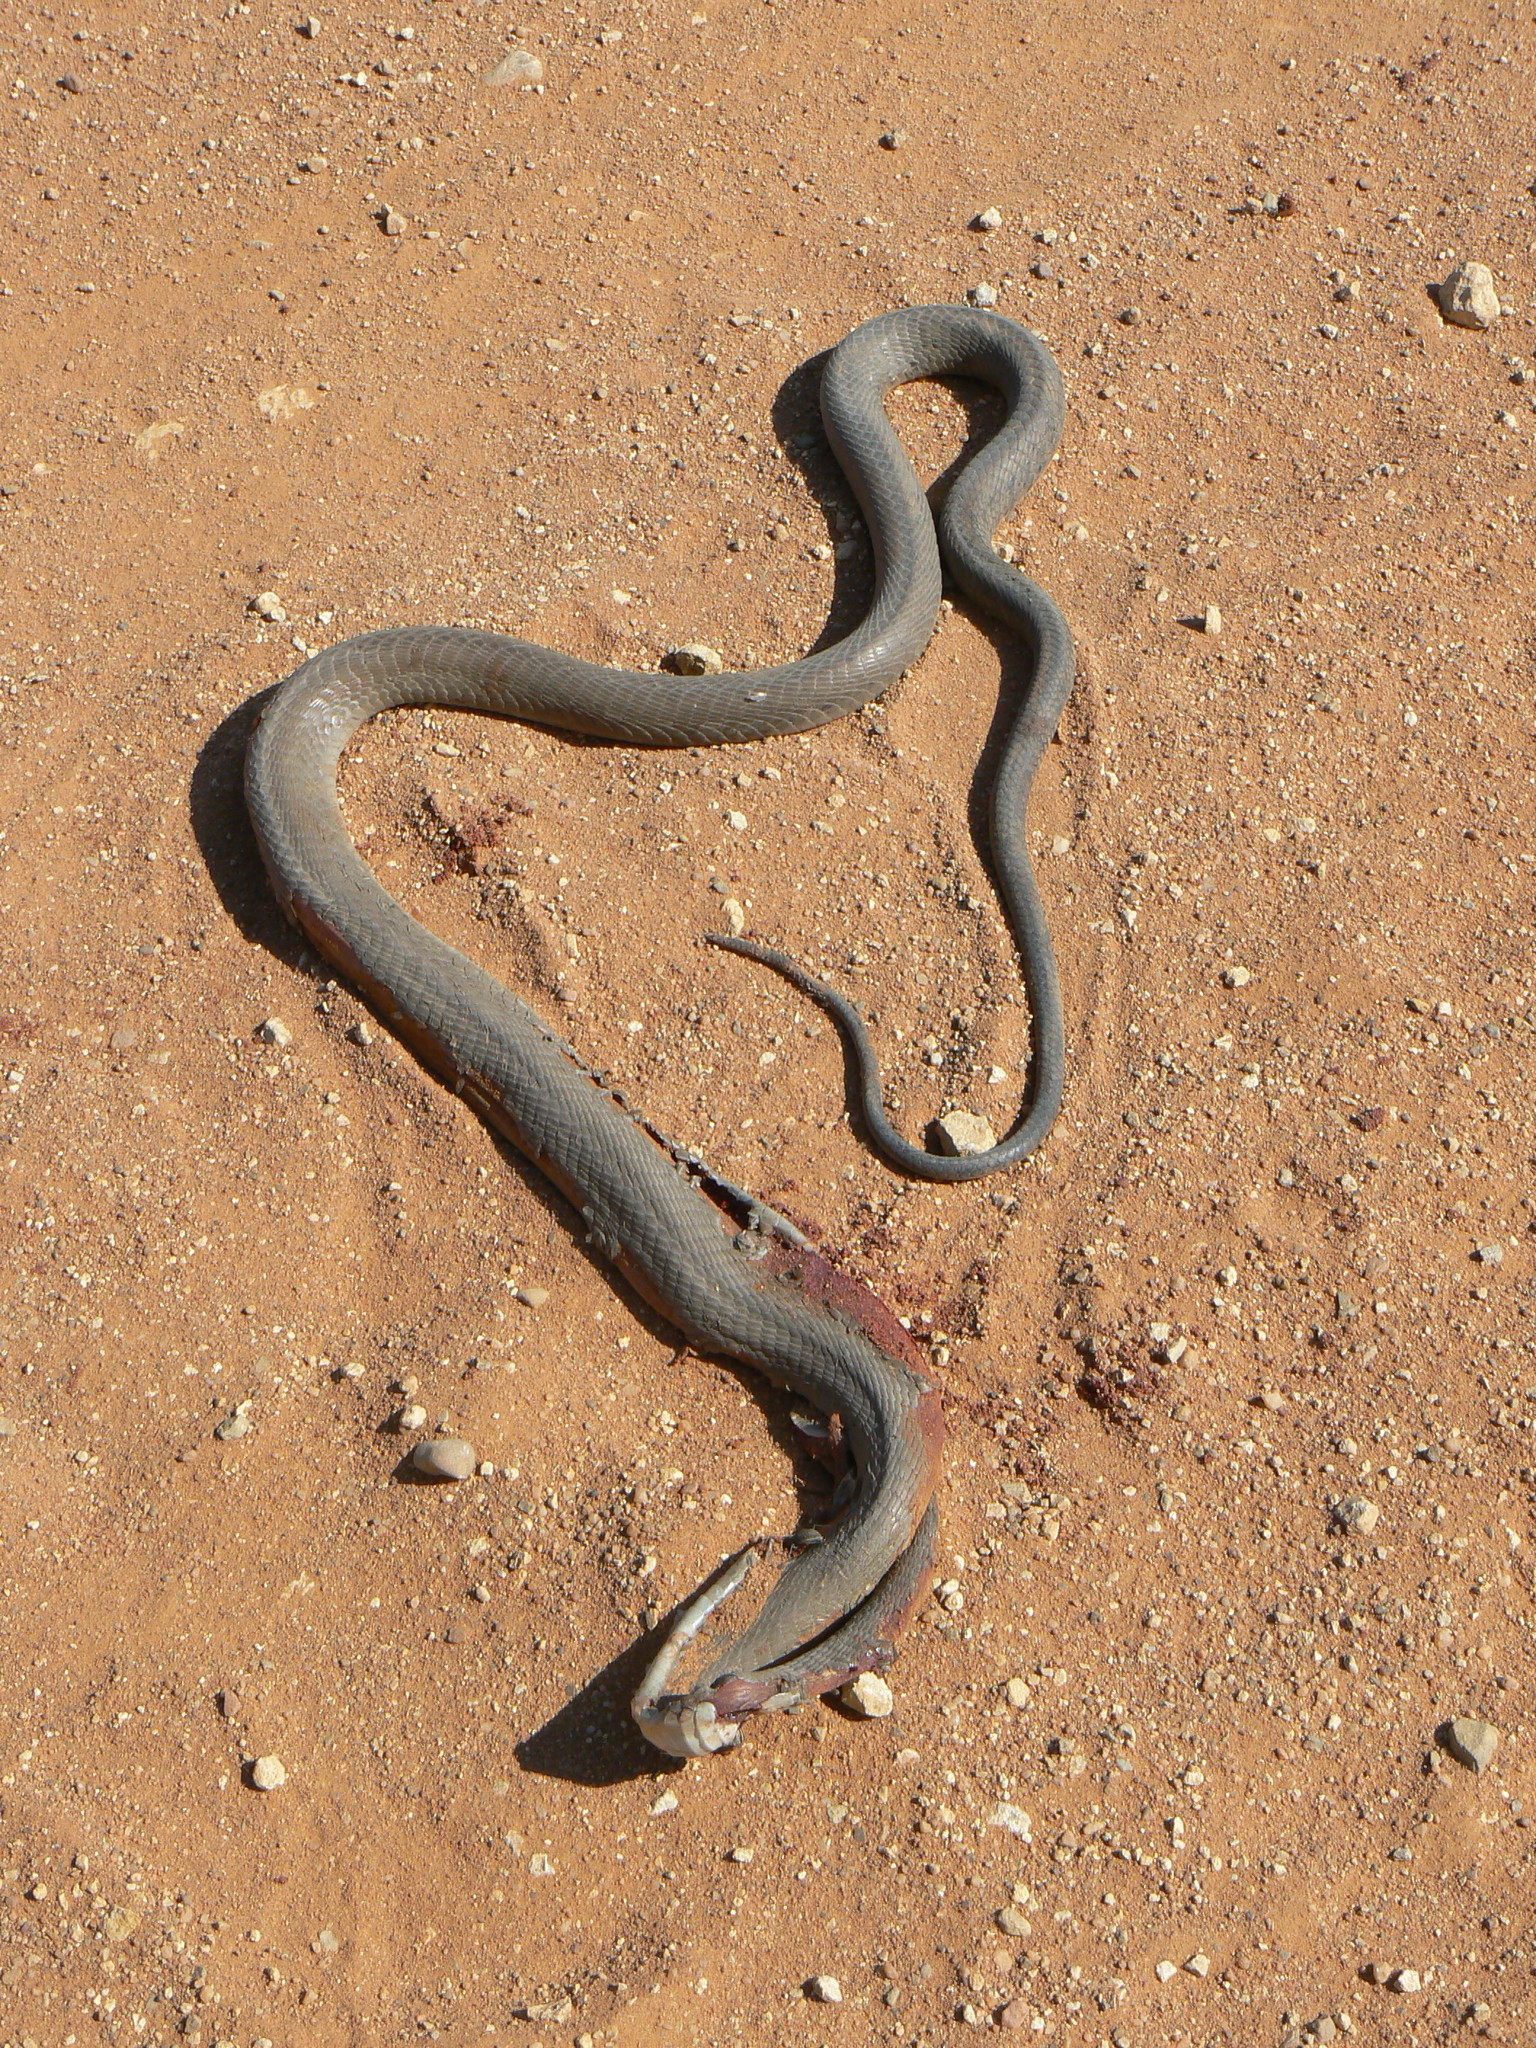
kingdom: Animalia
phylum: Chordata
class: Squamata
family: Elapidae
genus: Dendroaspis
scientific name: Dendroaspis polylepis
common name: Black mamba
